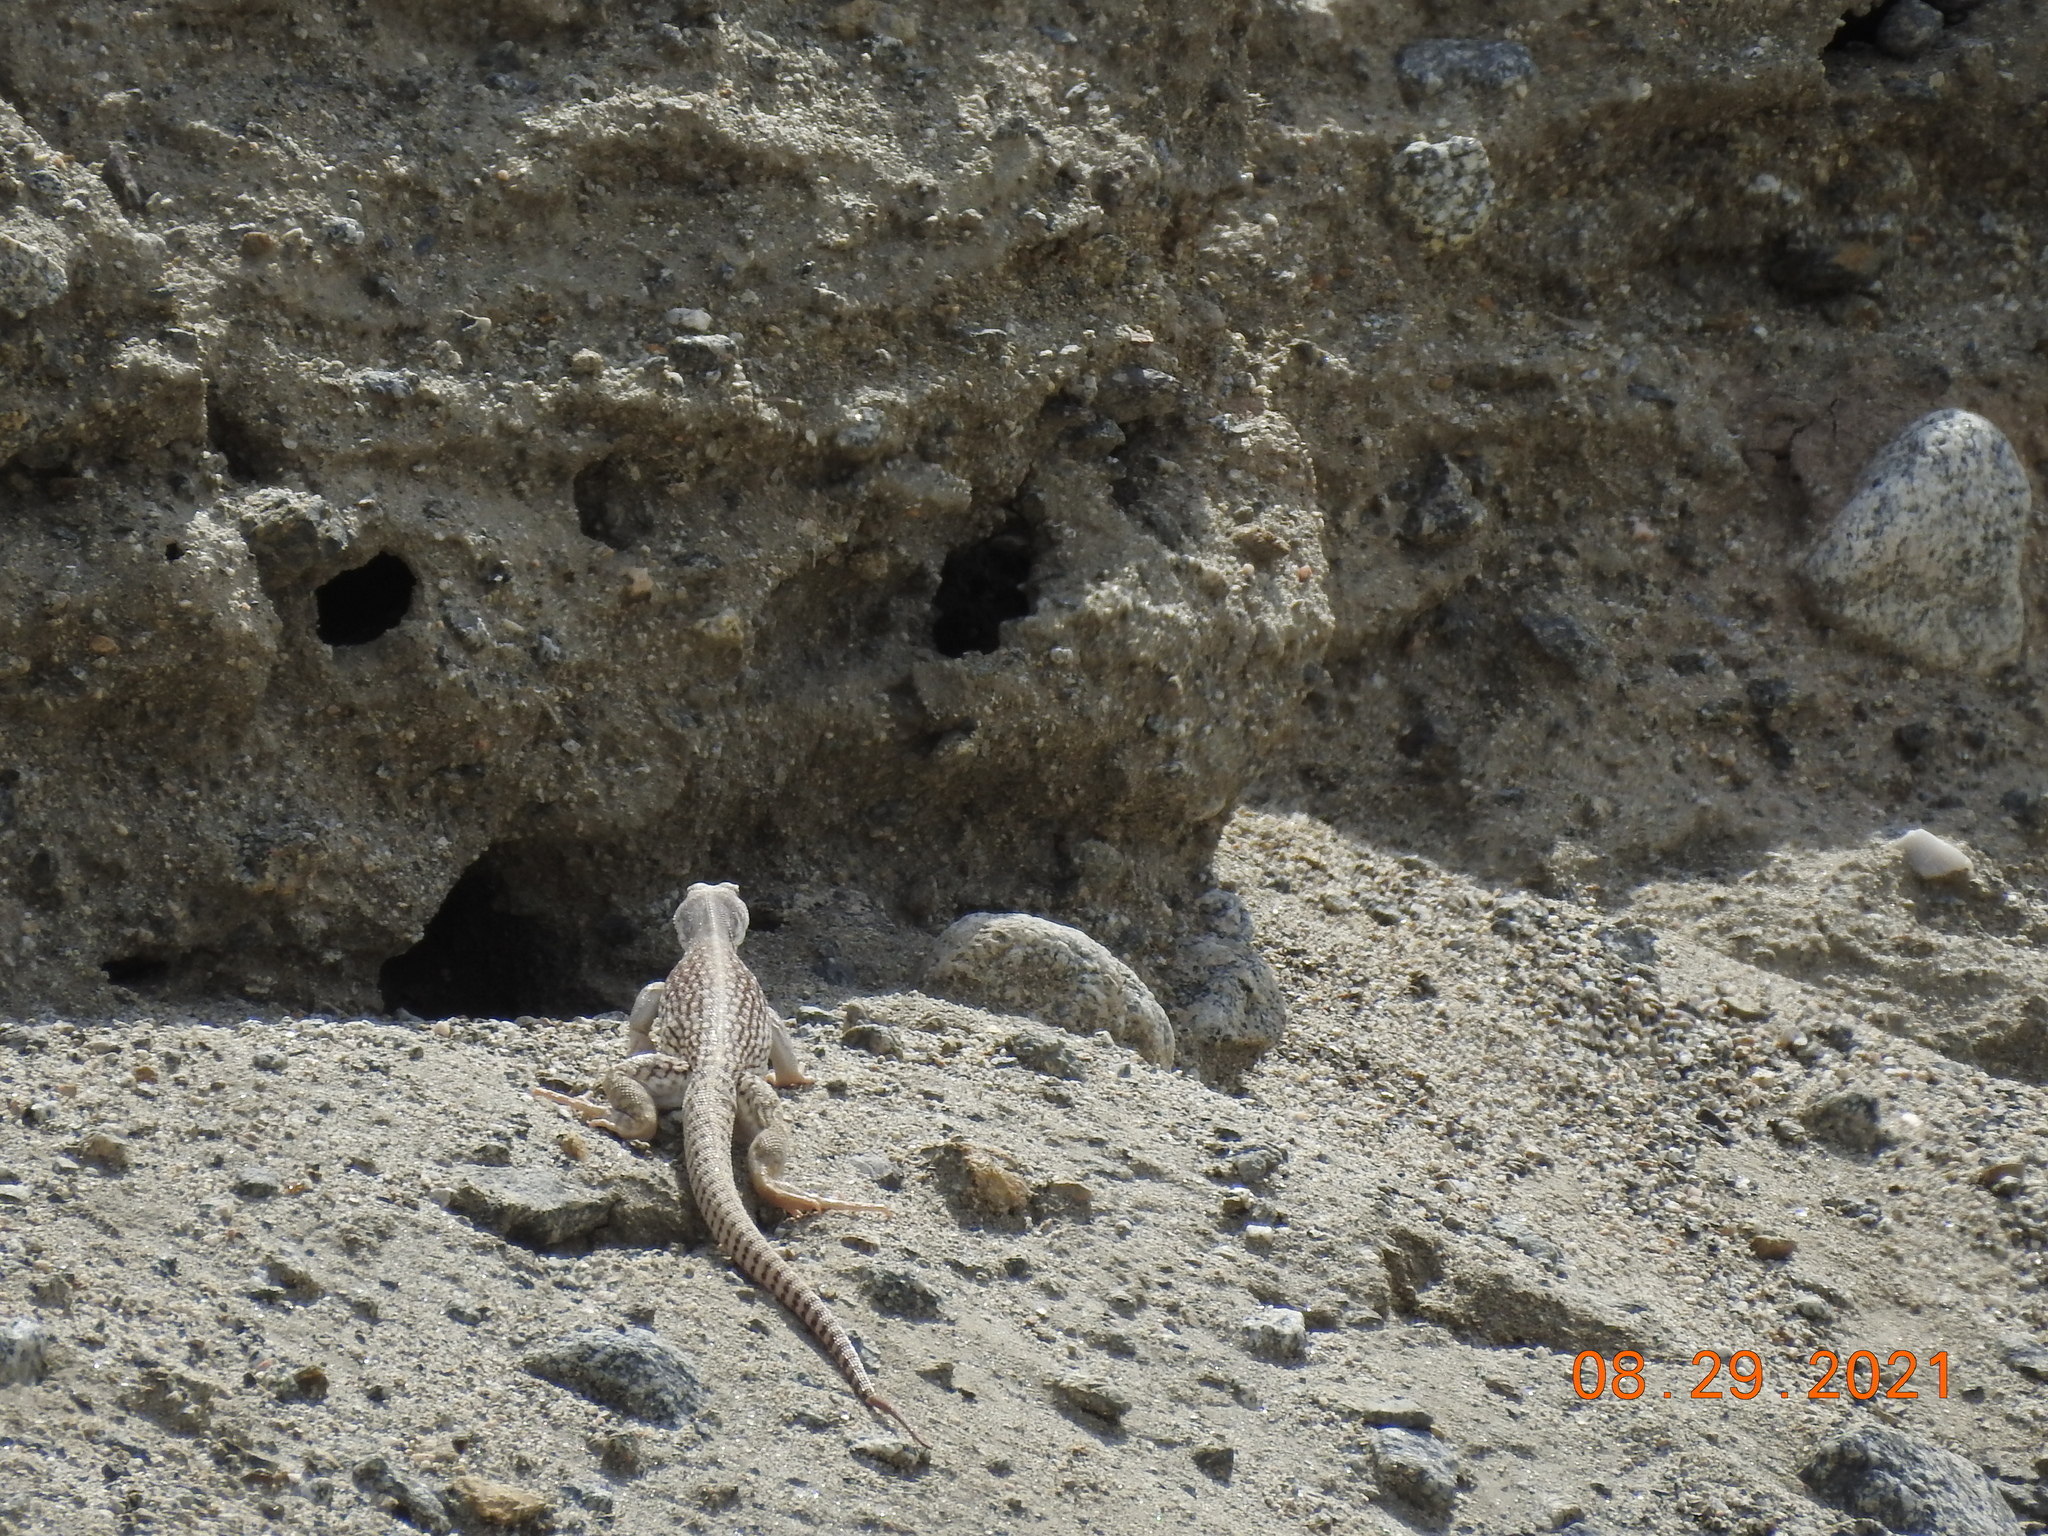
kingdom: Animalia
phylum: Chordata
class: Squamata
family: Iguanidae
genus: Dipsosaurus
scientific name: Dipsosaurus dorsalis
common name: Desert iguana
